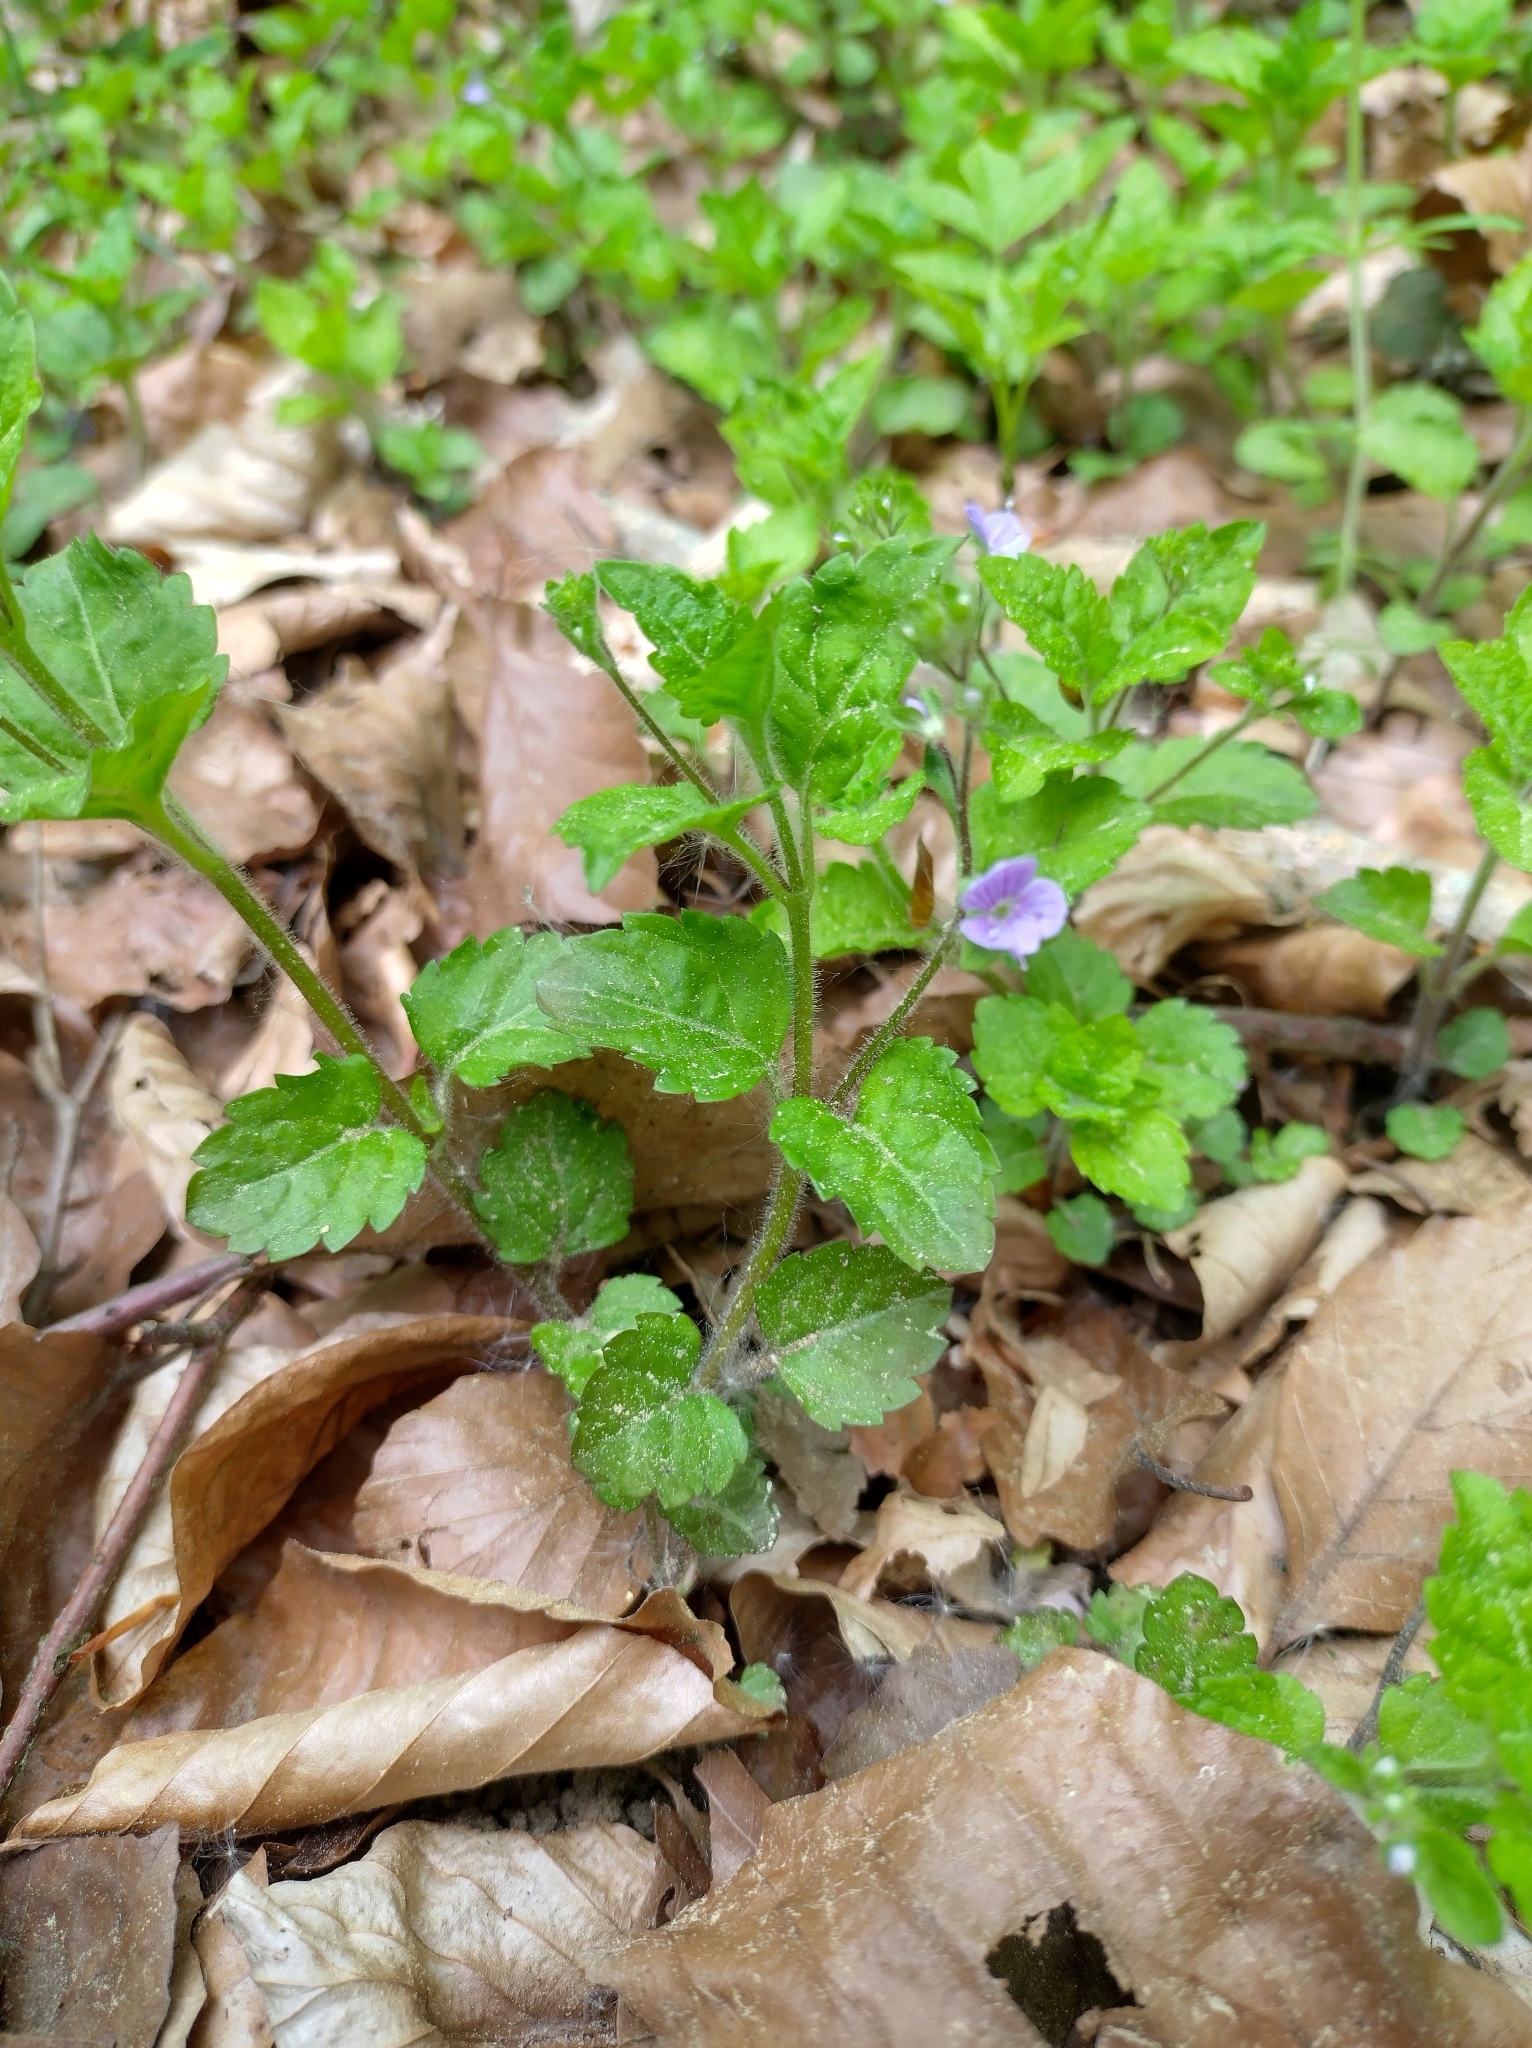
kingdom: Plantae
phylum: Tracheophyta
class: Magnoliopsida
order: Lamiales
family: Plantaginaceae
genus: Veronica
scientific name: Veronica montana
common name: Wood speedwell
